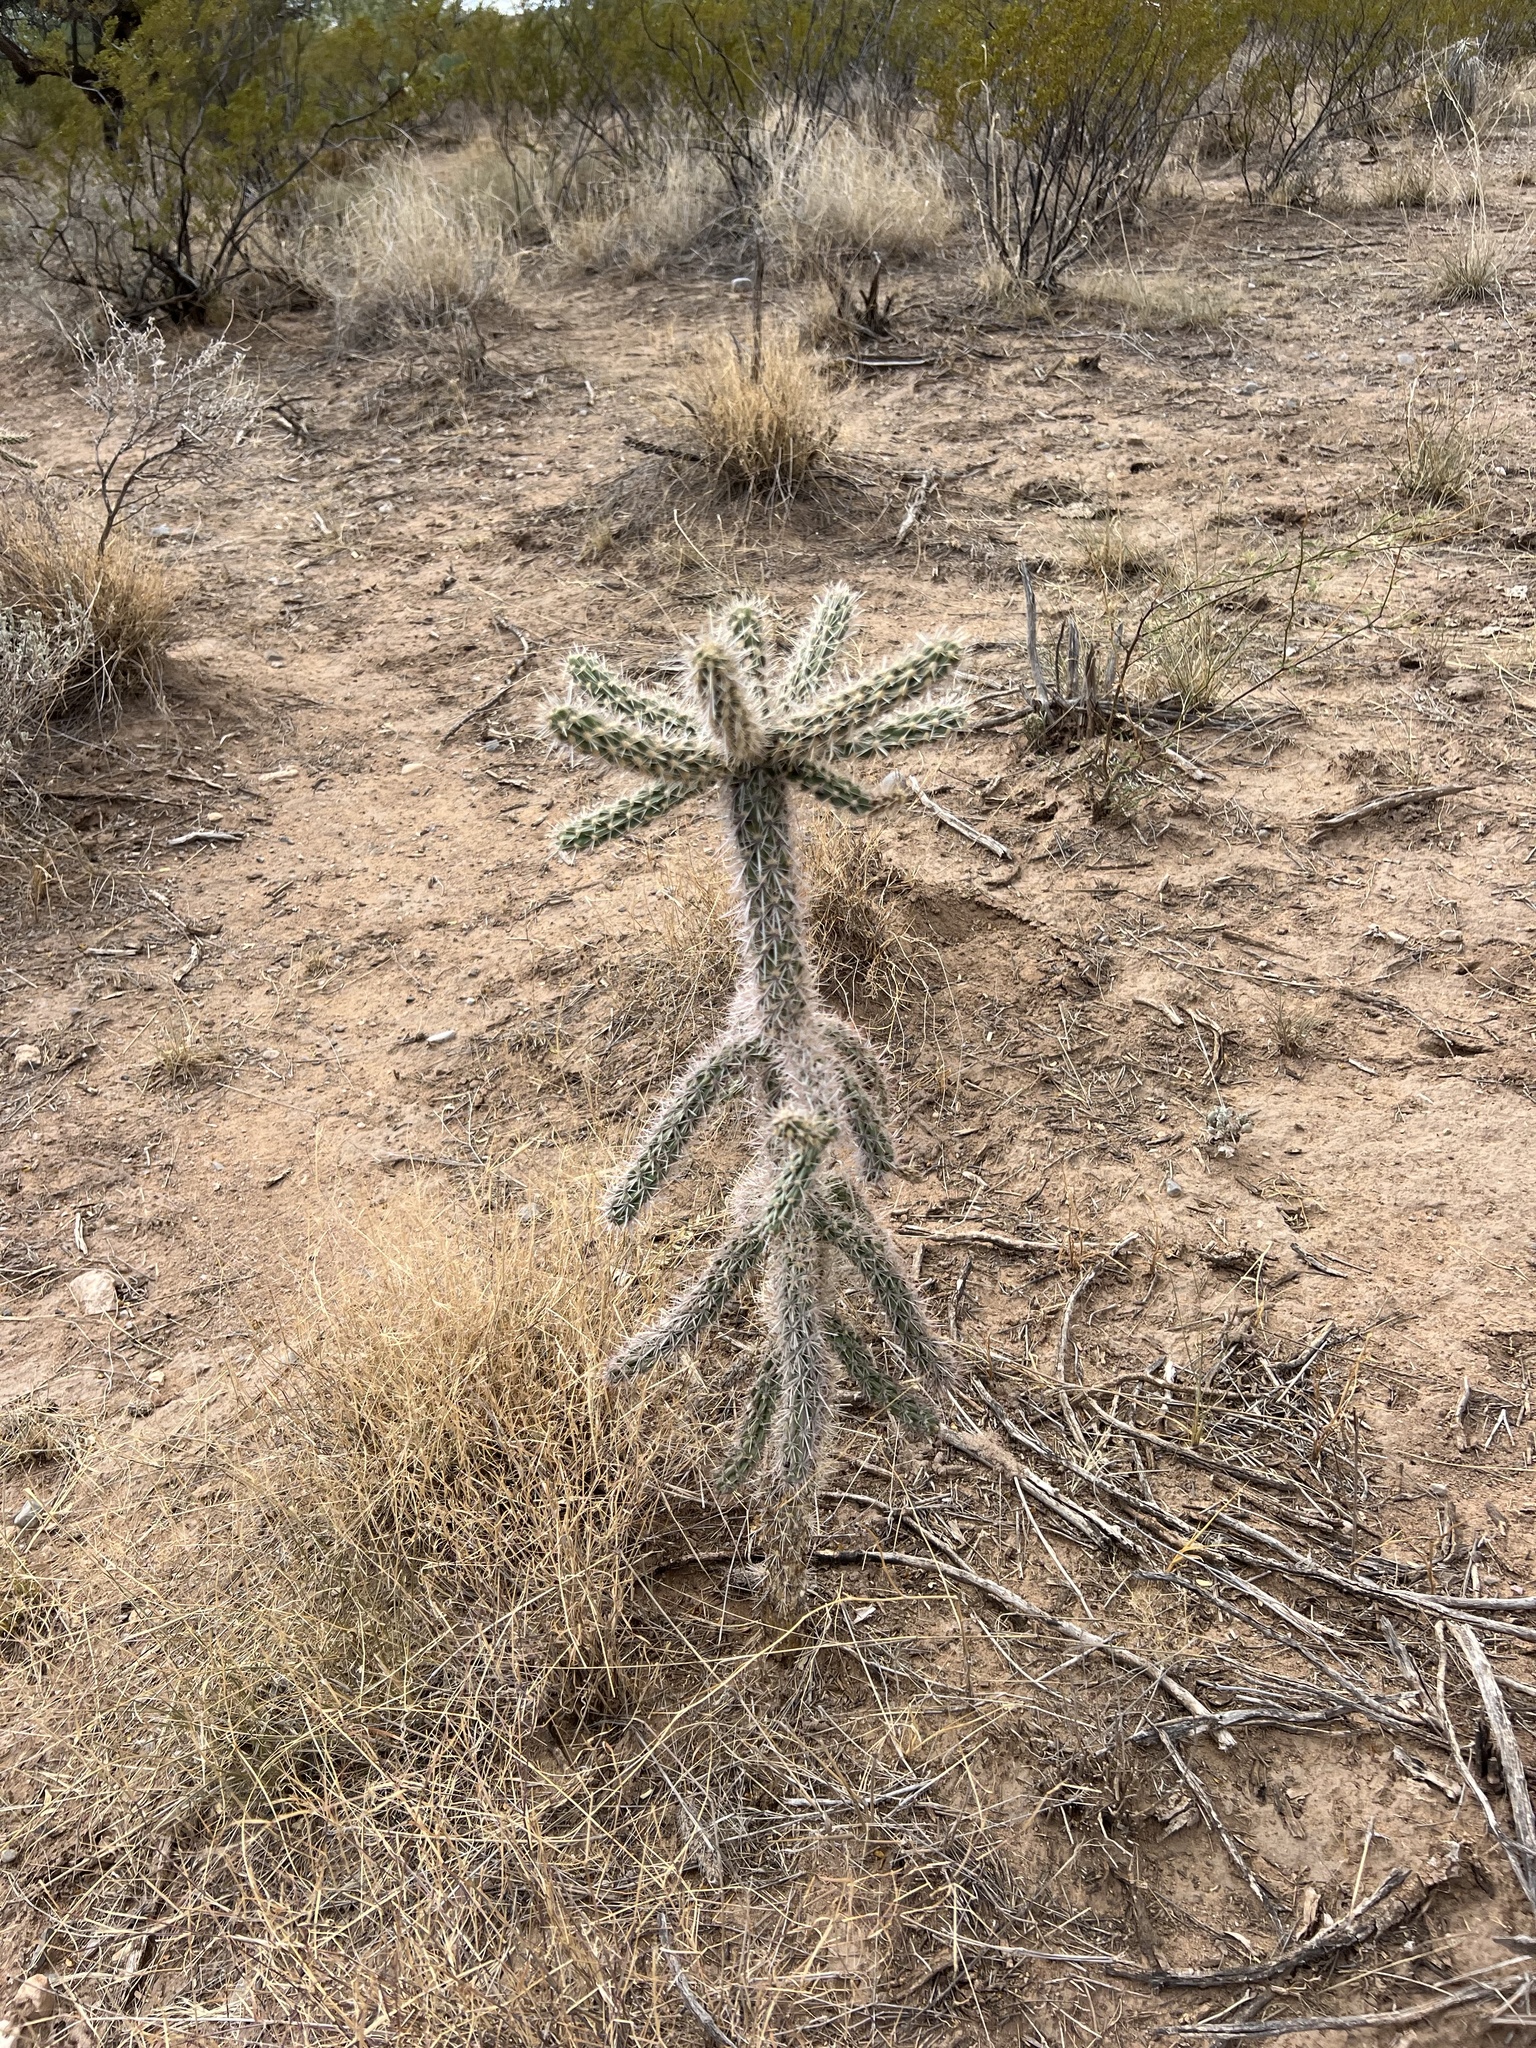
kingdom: Plantae
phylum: Tracheophyta
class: Magnoliopsida
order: Caryophyllales
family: Cactaceae
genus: Cylindropuntia
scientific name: Cylindropuntia imbricata
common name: Candelabrum cactus
